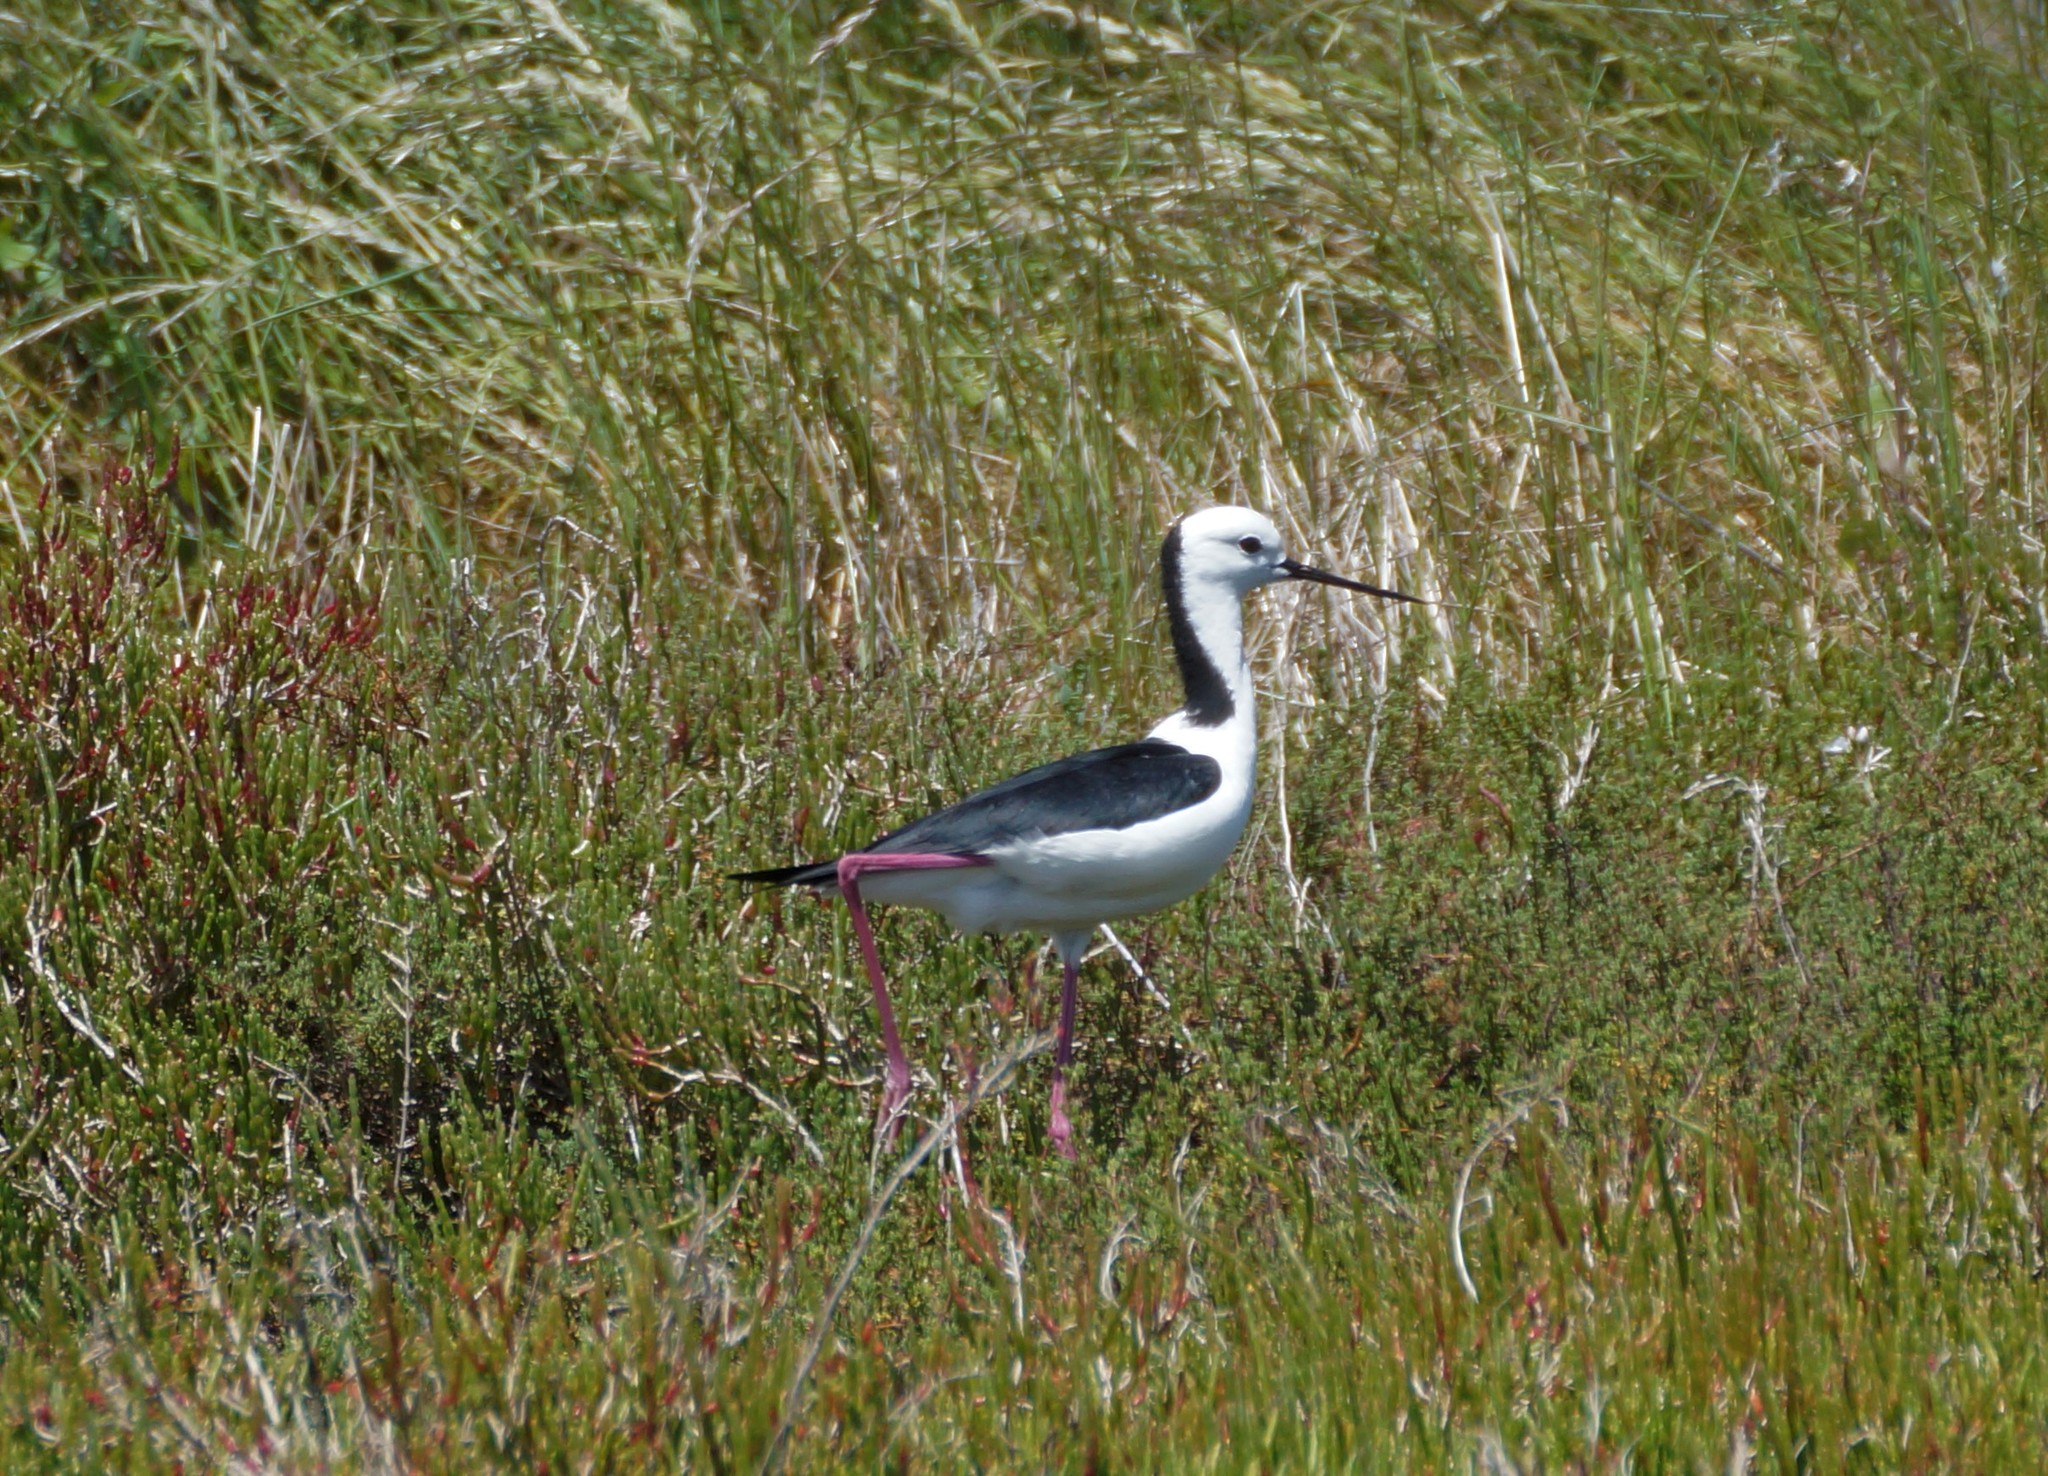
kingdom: Animalia
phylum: Chordata
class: Aves
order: Charadriiformes
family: Recurvirostridae
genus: Himantopus
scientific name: Himantopus leucocephalus
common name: White-headed stilt
